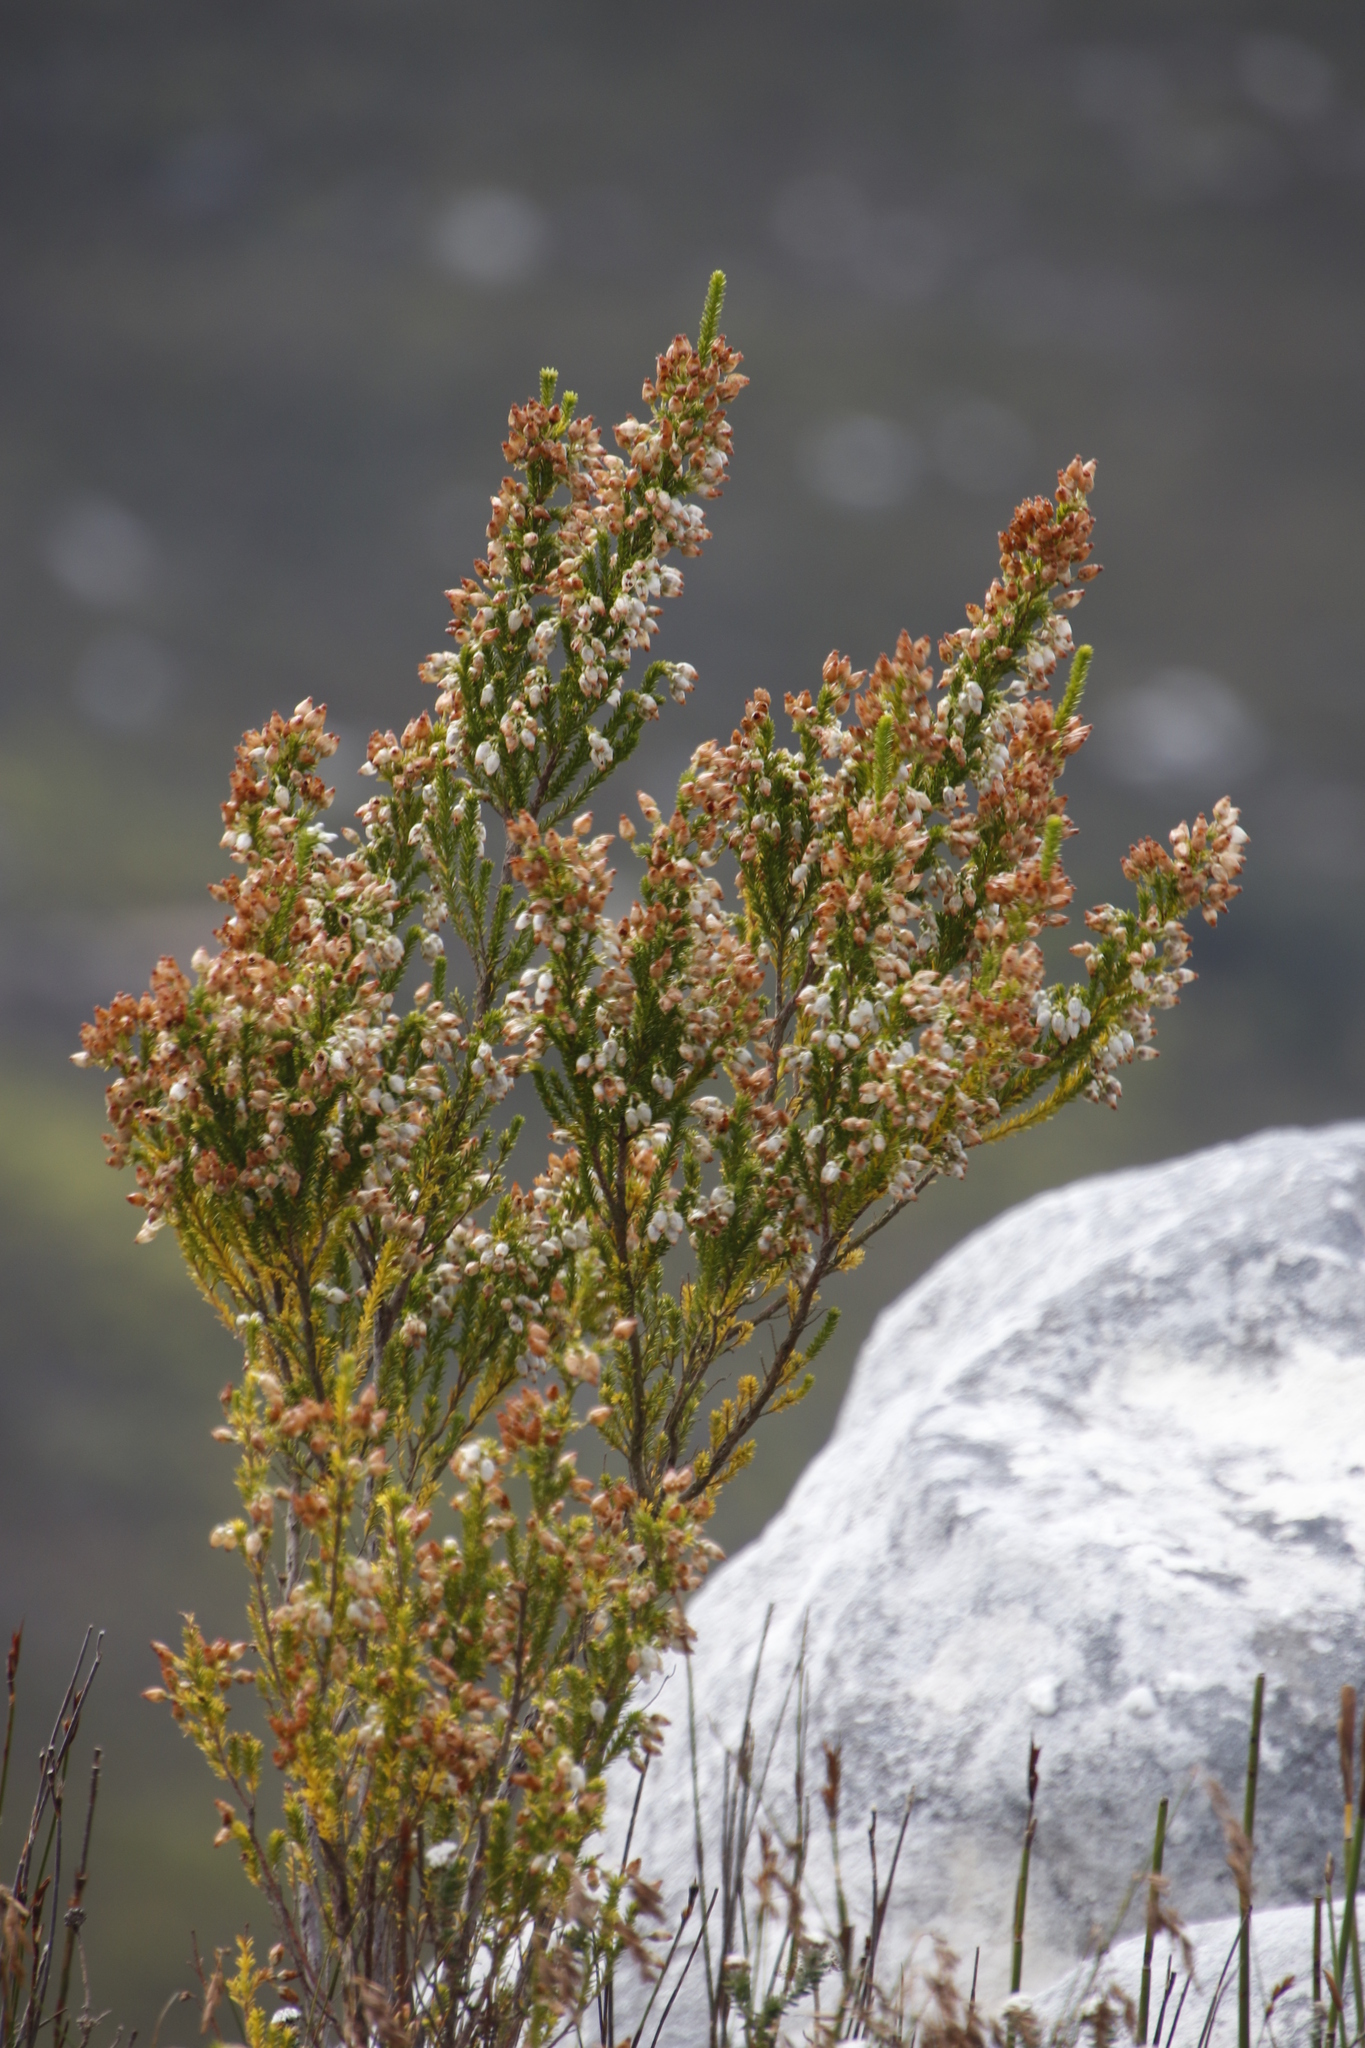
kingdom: Plantae
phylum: Tracheophyta
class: Magnoliopsida
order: Ericales
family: Ericaceae
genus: Erica
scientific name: Erica physodes
